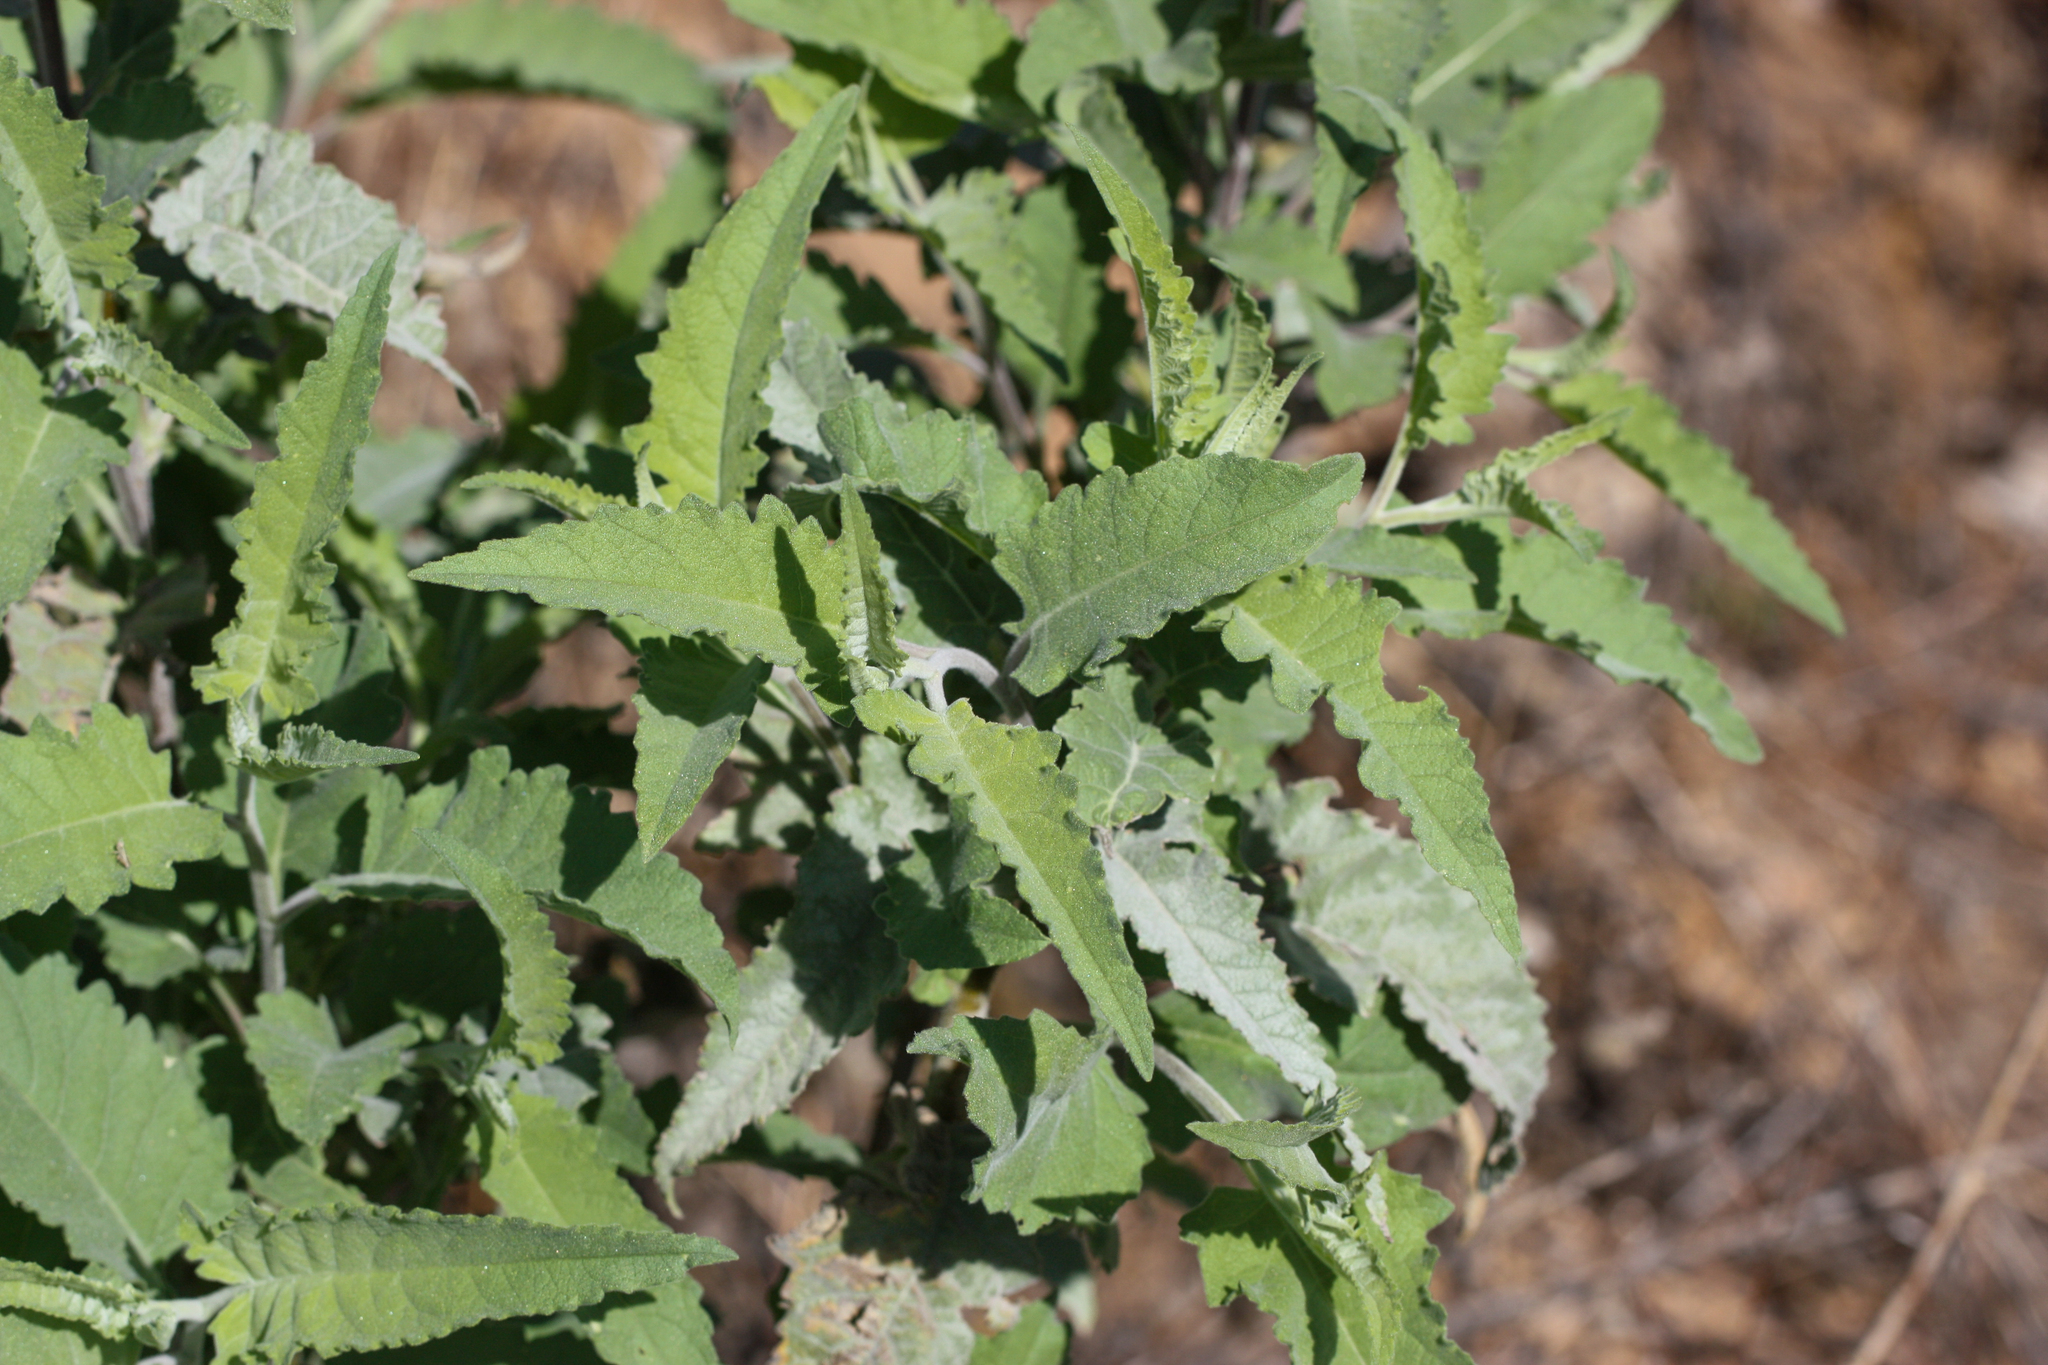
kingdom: Plantae
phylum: Tracheophyta
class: Magnoliopsida
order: Asterales
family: Asteraceae
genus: Ambrosia
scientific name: Ambrosia ambrosioides
